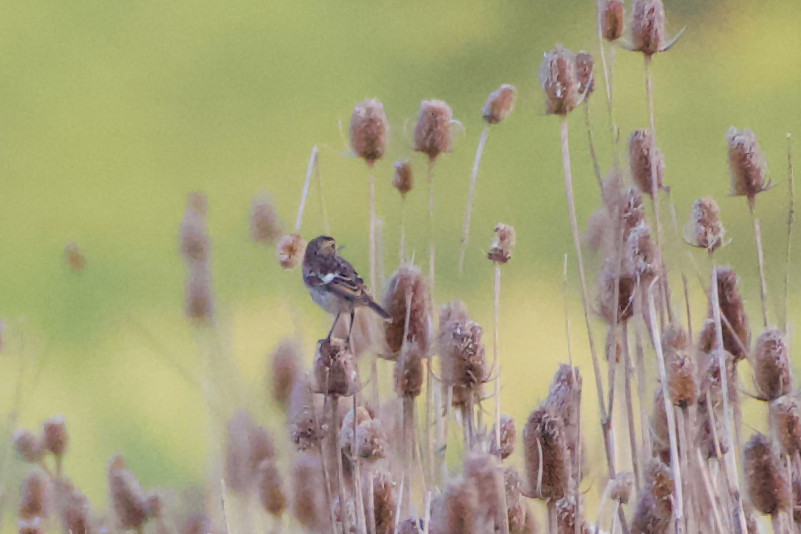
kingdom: Animalia
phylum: Chordata
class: Aves
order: Passeriformes
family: Muscicapidae
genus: Saxicola
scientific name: Saxicola rubicola
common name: European stonechat
